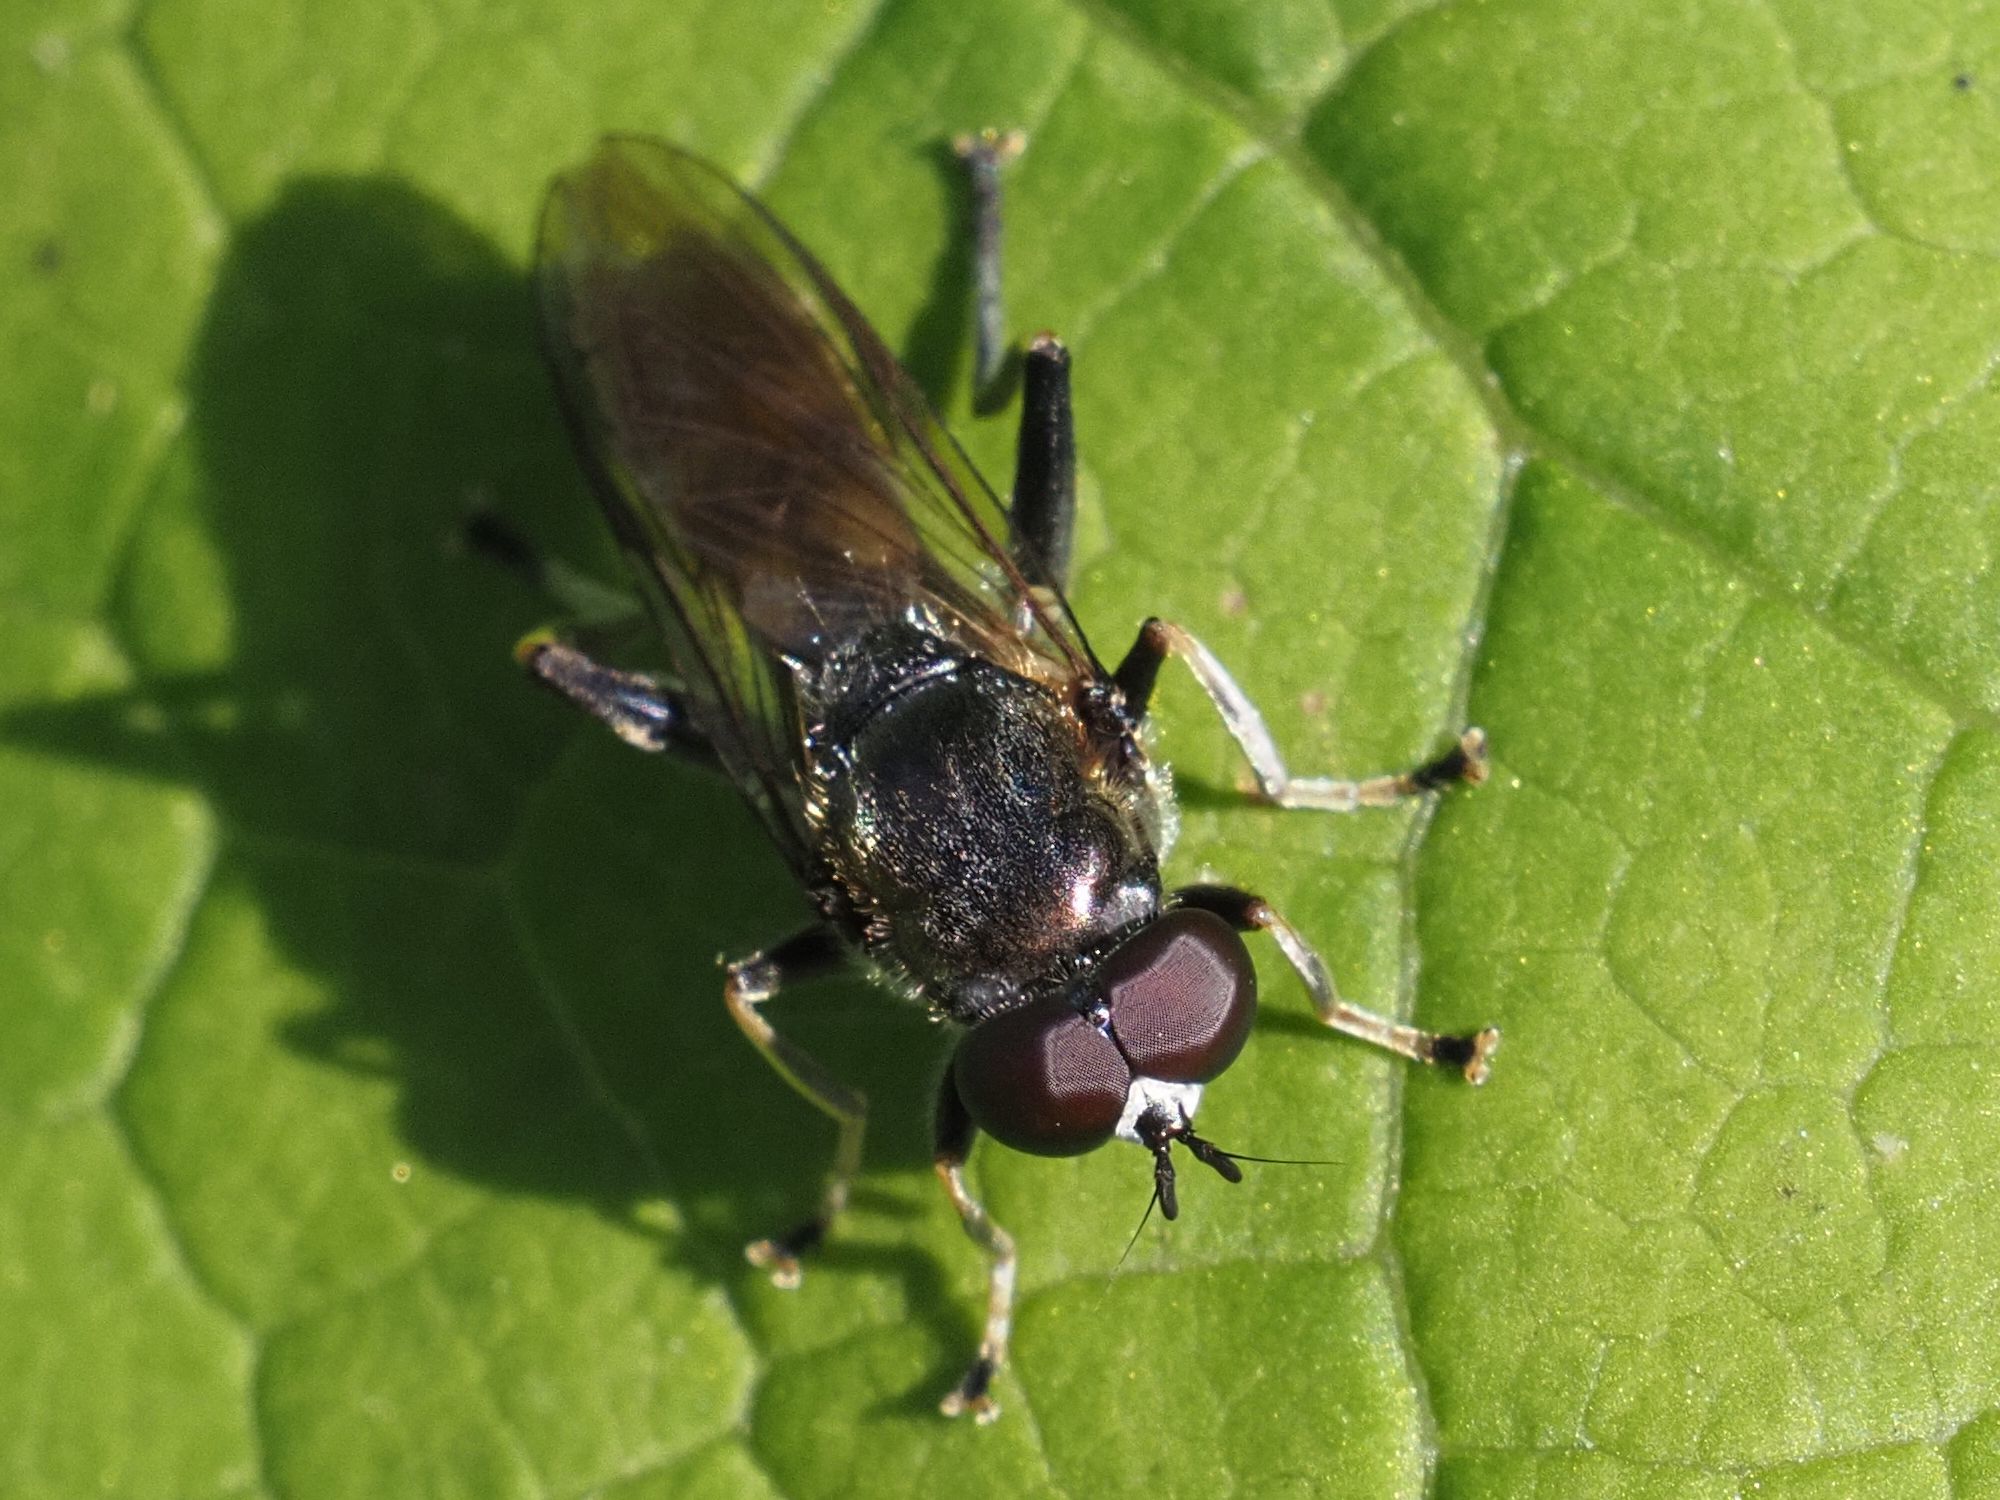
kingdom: Animalia
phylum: Arthropoda
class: Insecta
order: Diptera
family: Syrphidae
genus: Xylota
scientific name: Xylota florum
